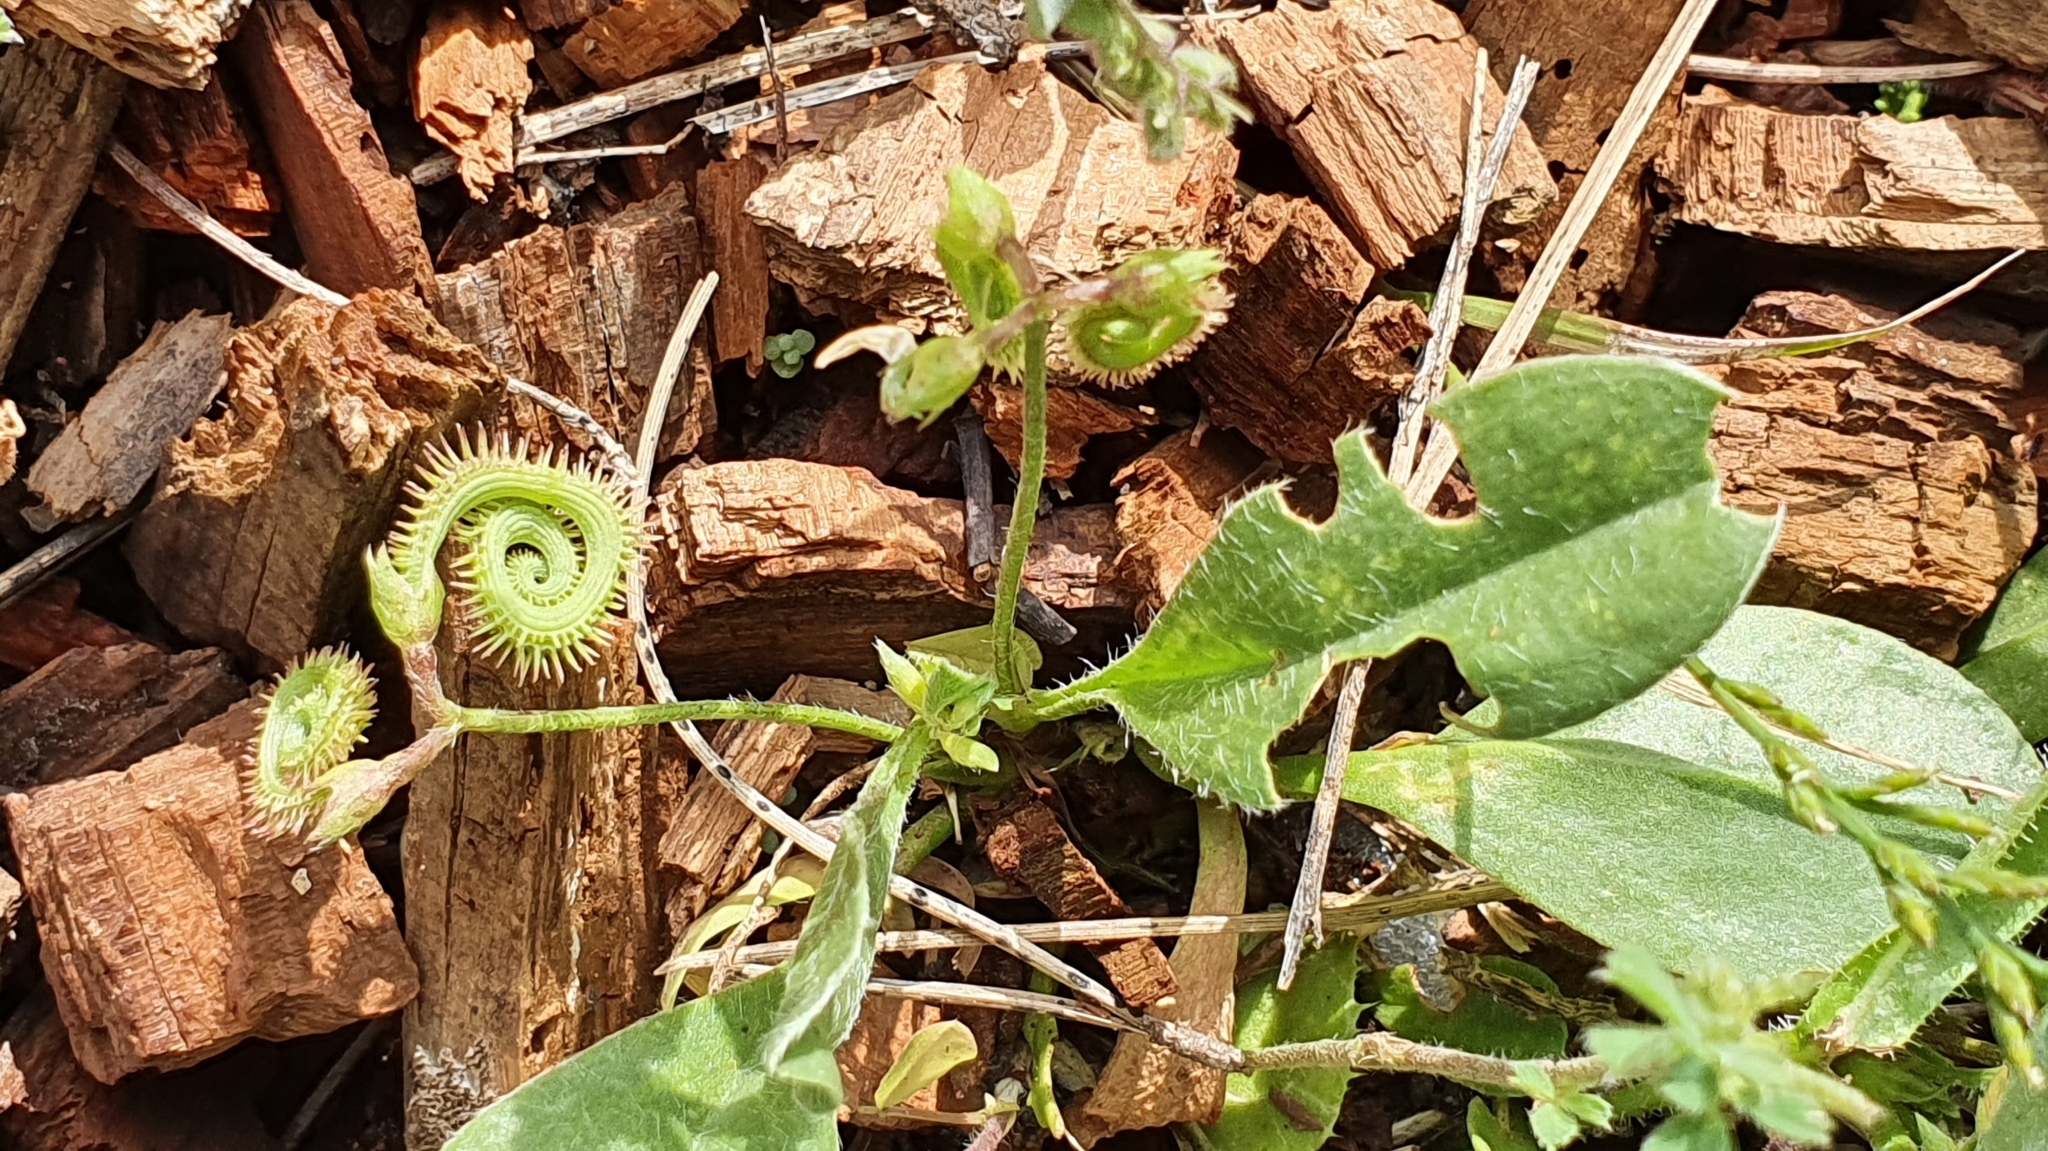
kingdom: Plantae
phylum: Tracheophyta
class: Magnoliopsida
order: Fabales
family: Fabaceae
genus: Scorpiurus
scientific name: Scorpiurus muricatus
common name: Caterpillar-plant
